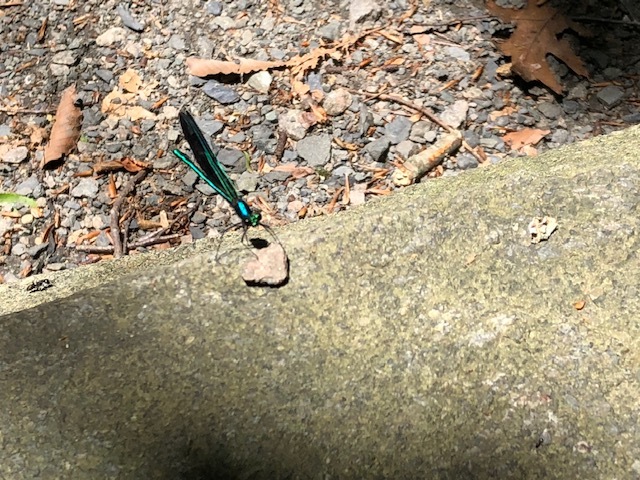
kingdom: Animalia
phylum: Arthropoda
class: Insecta
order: Odonata
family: Calopterygidae
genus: Calopteryx
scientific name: Calopteryx maculata
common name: Ebony jewelwing
